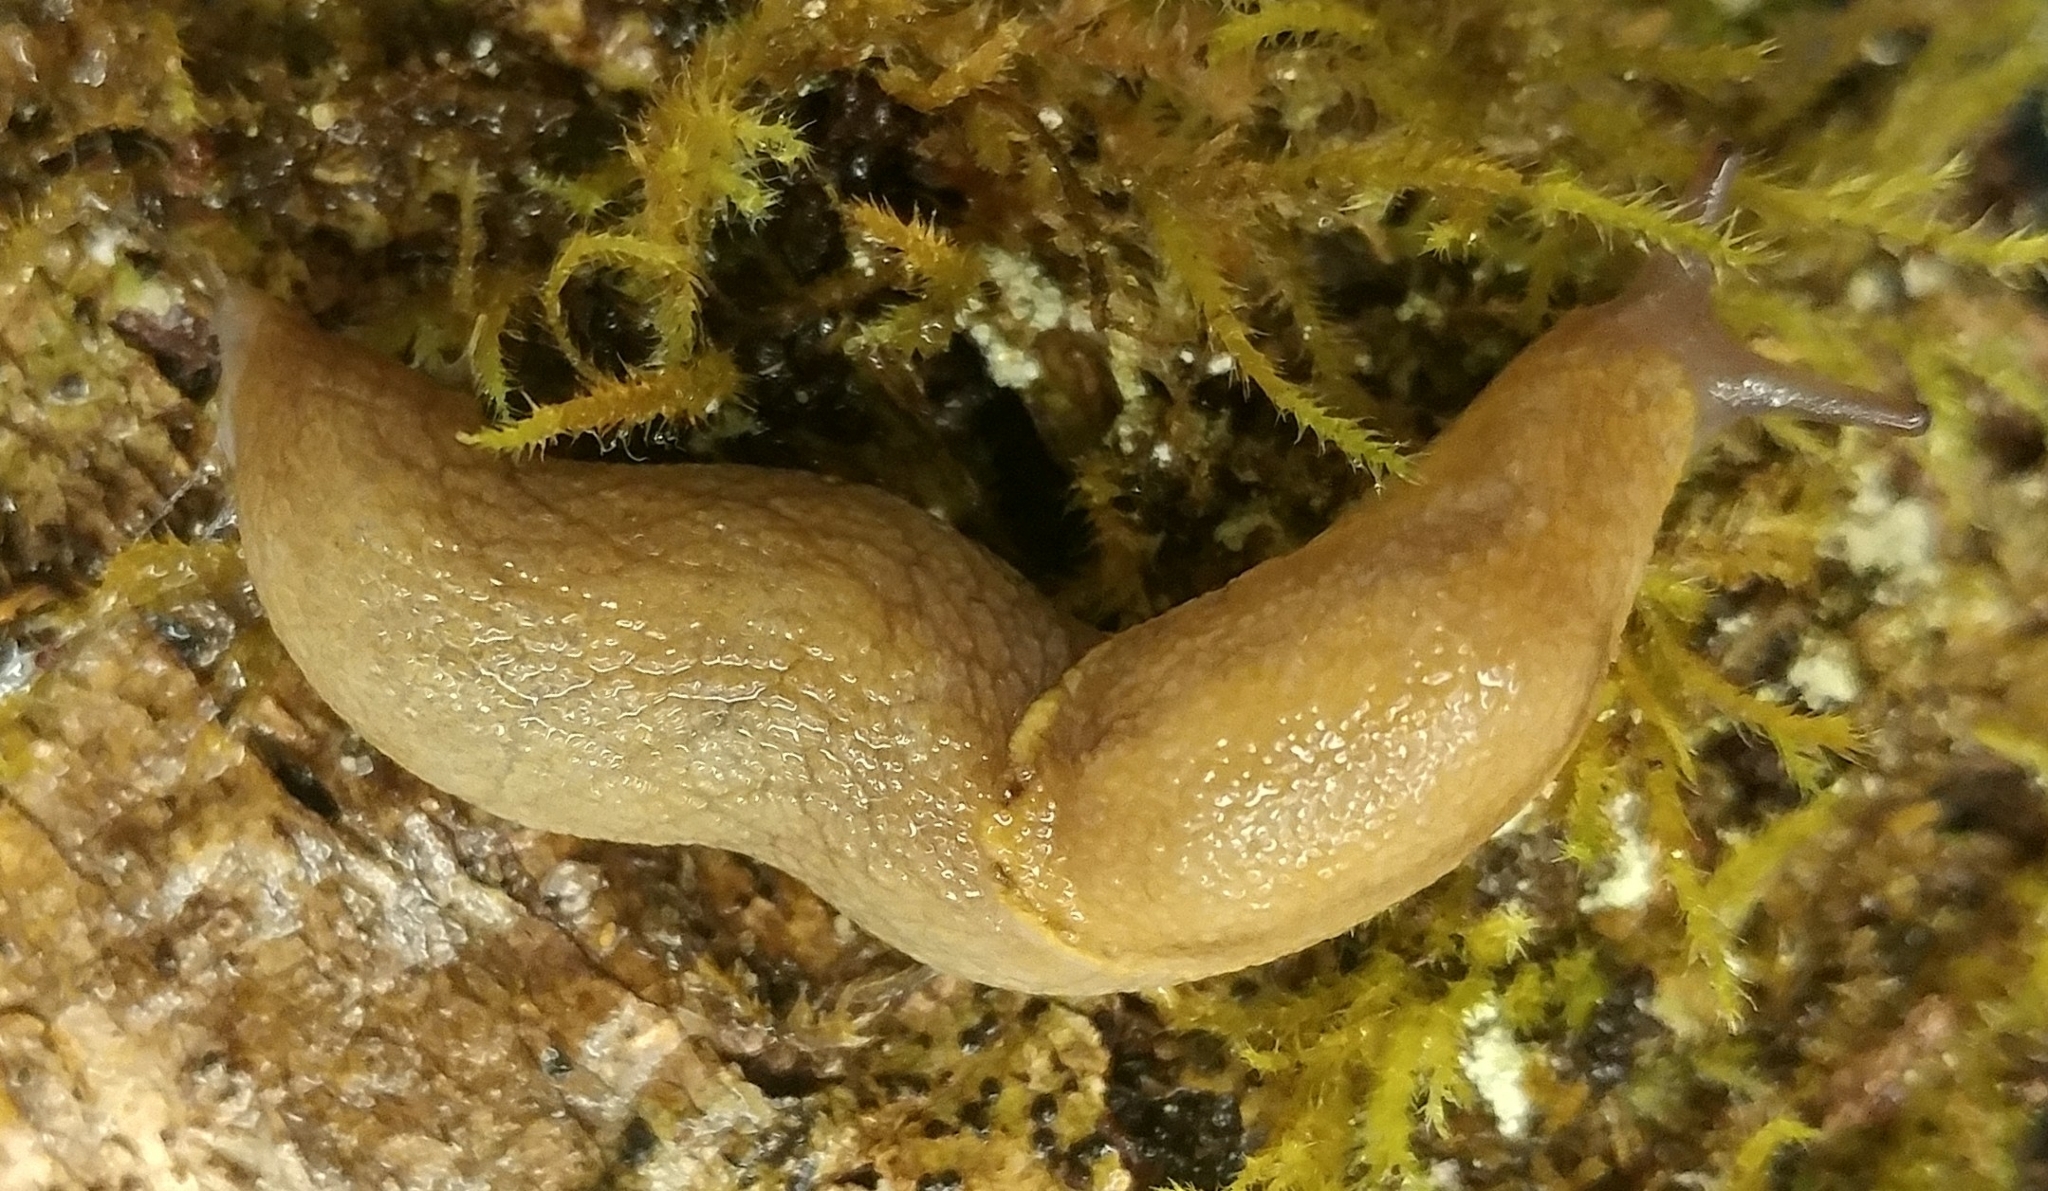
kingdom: Animalia
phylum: Mollusca
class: Gastropoda
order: Stylommatophora
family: Ariolimacidae
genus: Prophysaon
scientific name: Prophysaon foliolatum
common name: Yellow-bordered taildropper
